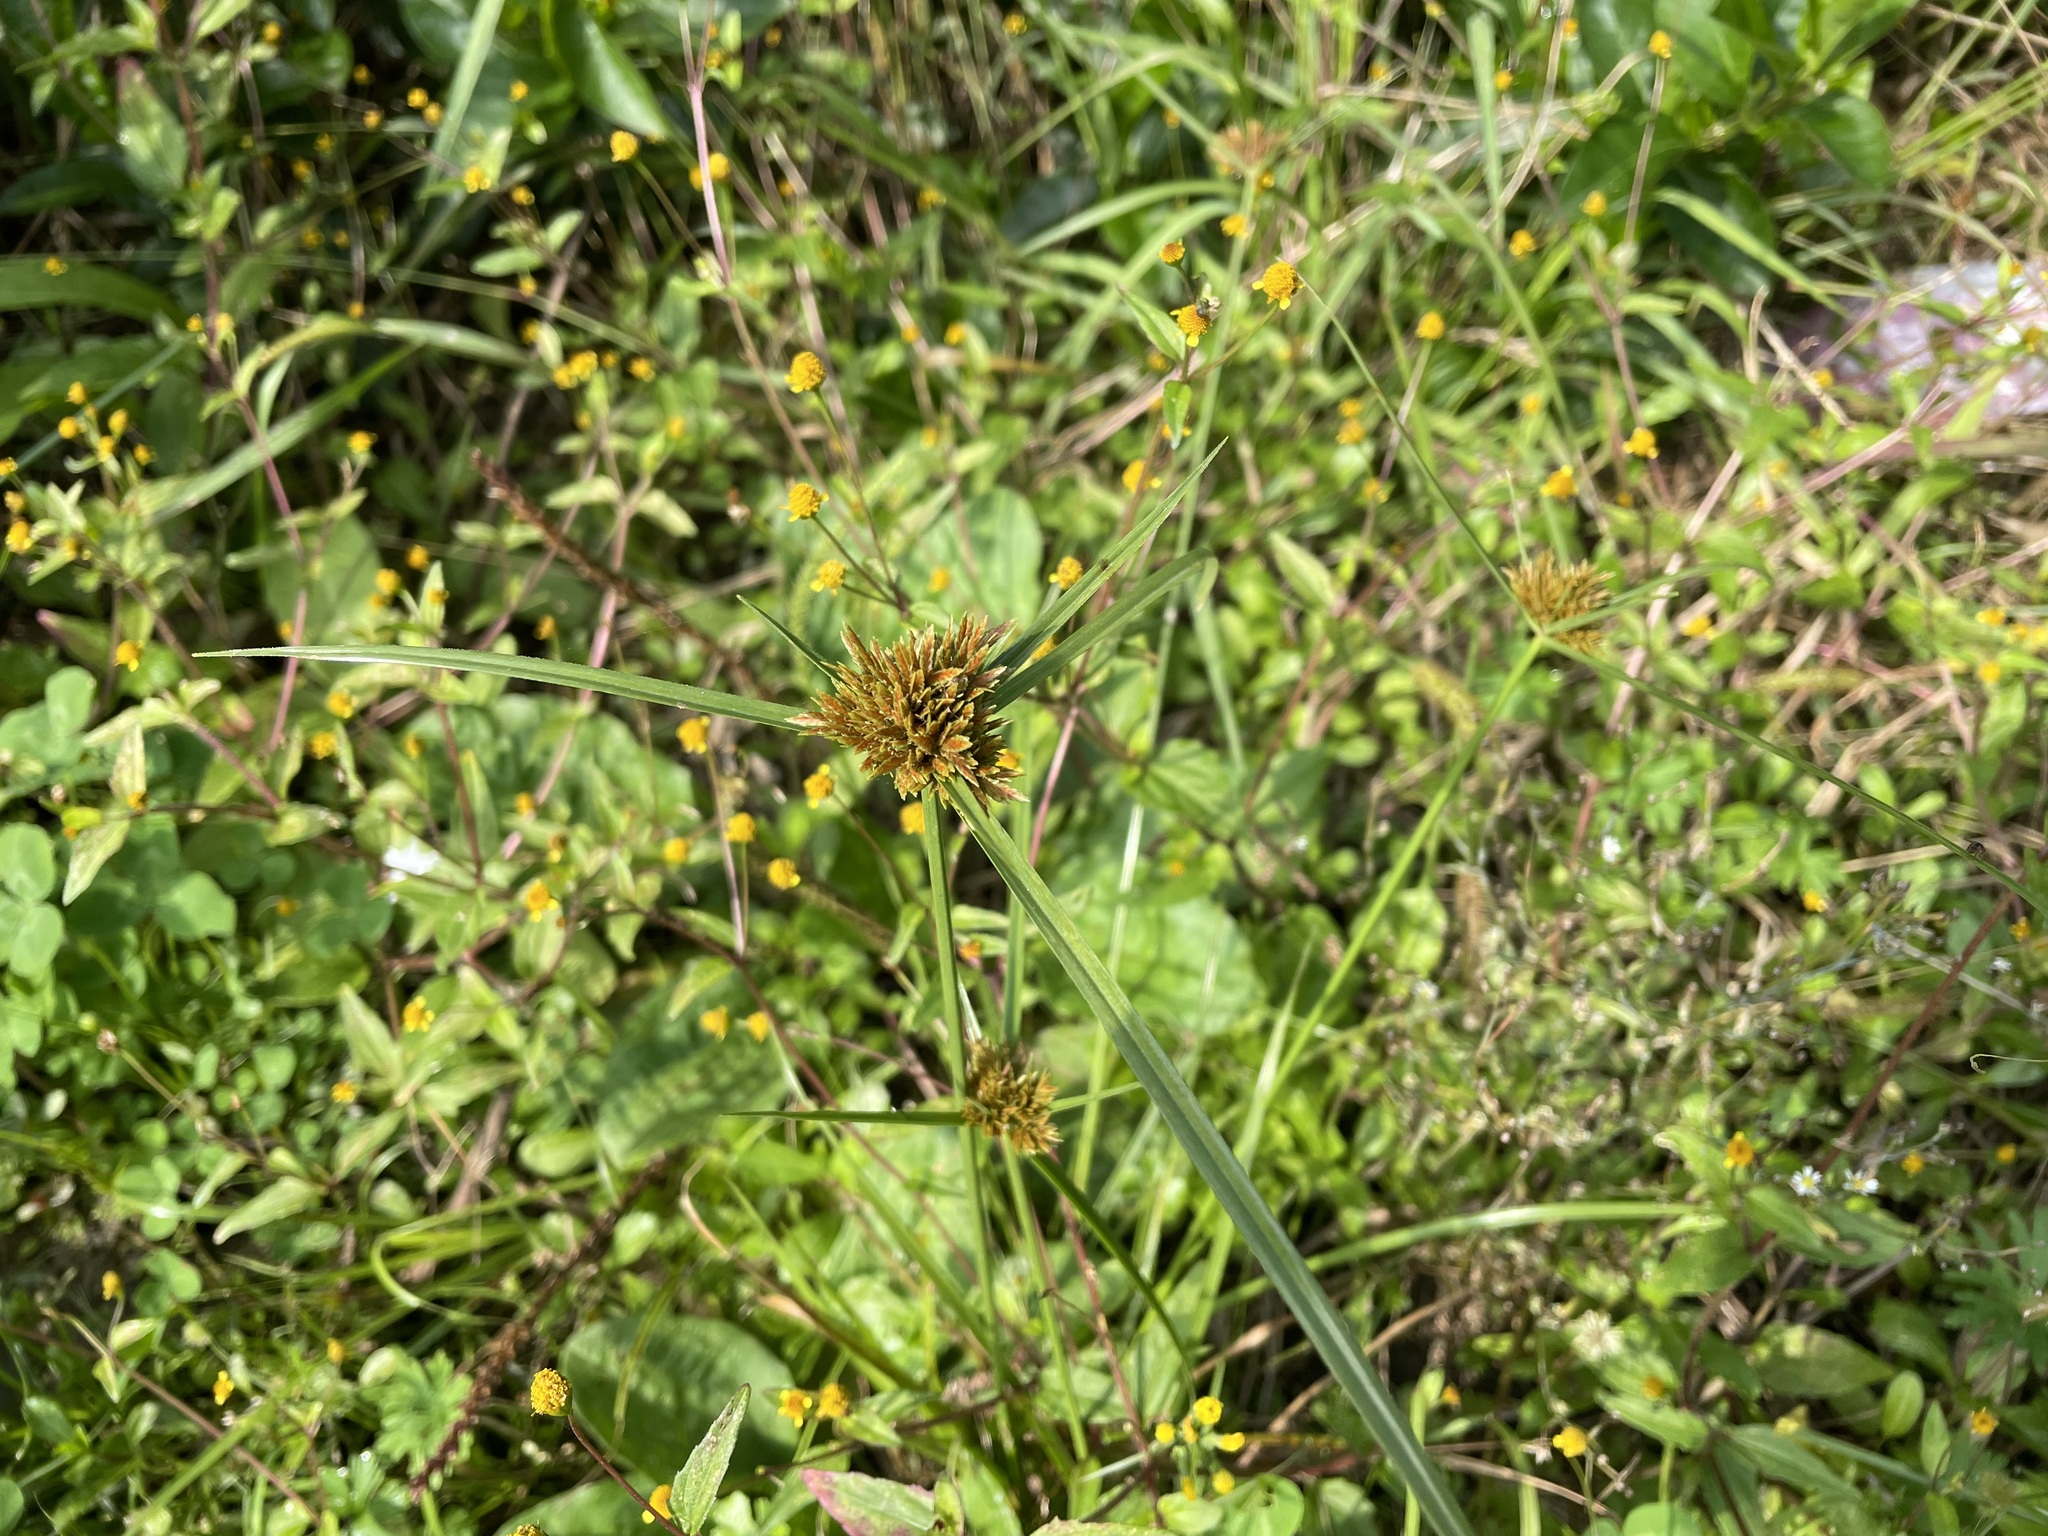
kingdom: Plantae
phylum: Tracheophyta
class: Liliopsida
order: Poales
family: Cyperaceae
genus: Cyperus
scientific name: Cyperus polystachyos
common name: Bunchy flat sedge
